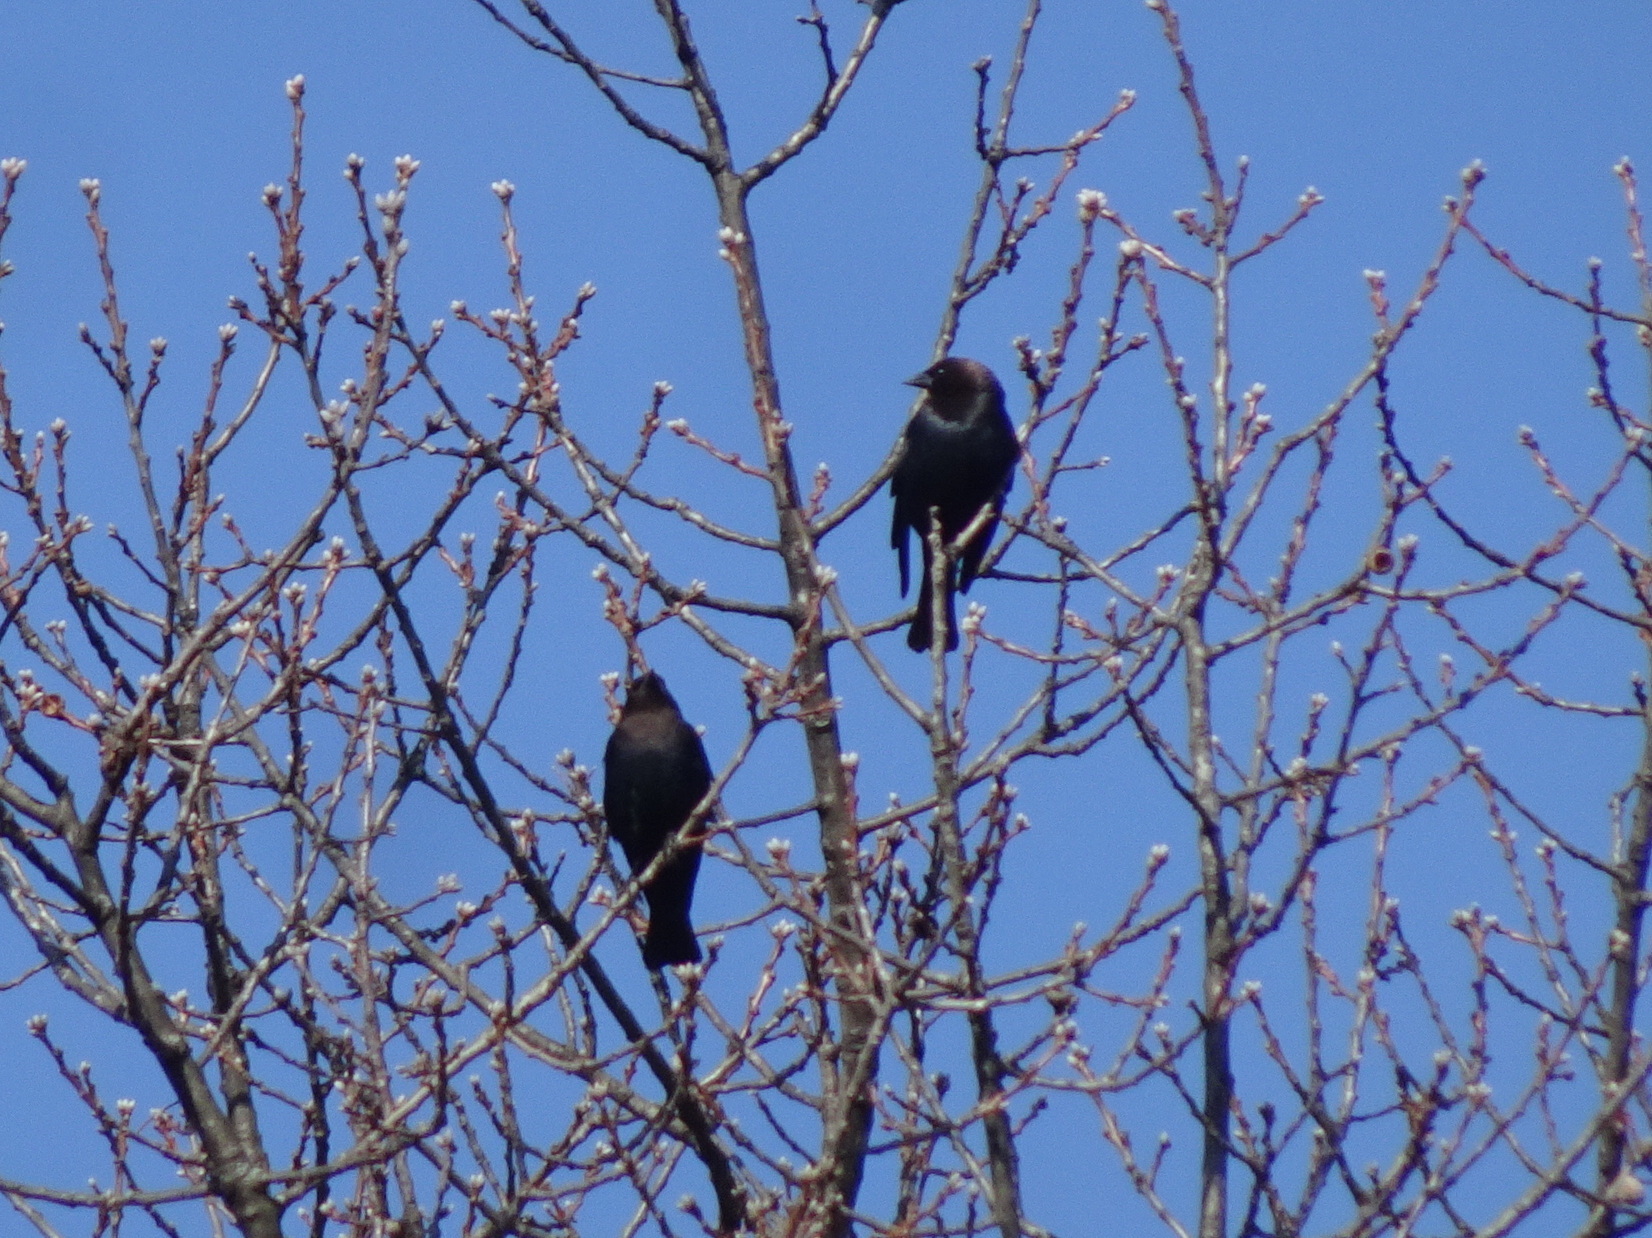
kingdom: Animalia
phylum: Chordata
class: Aves
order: Passeriformes
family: Icteridae
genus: Molothrus
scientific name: Molothrus ater
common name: Brown-headed cowbird
